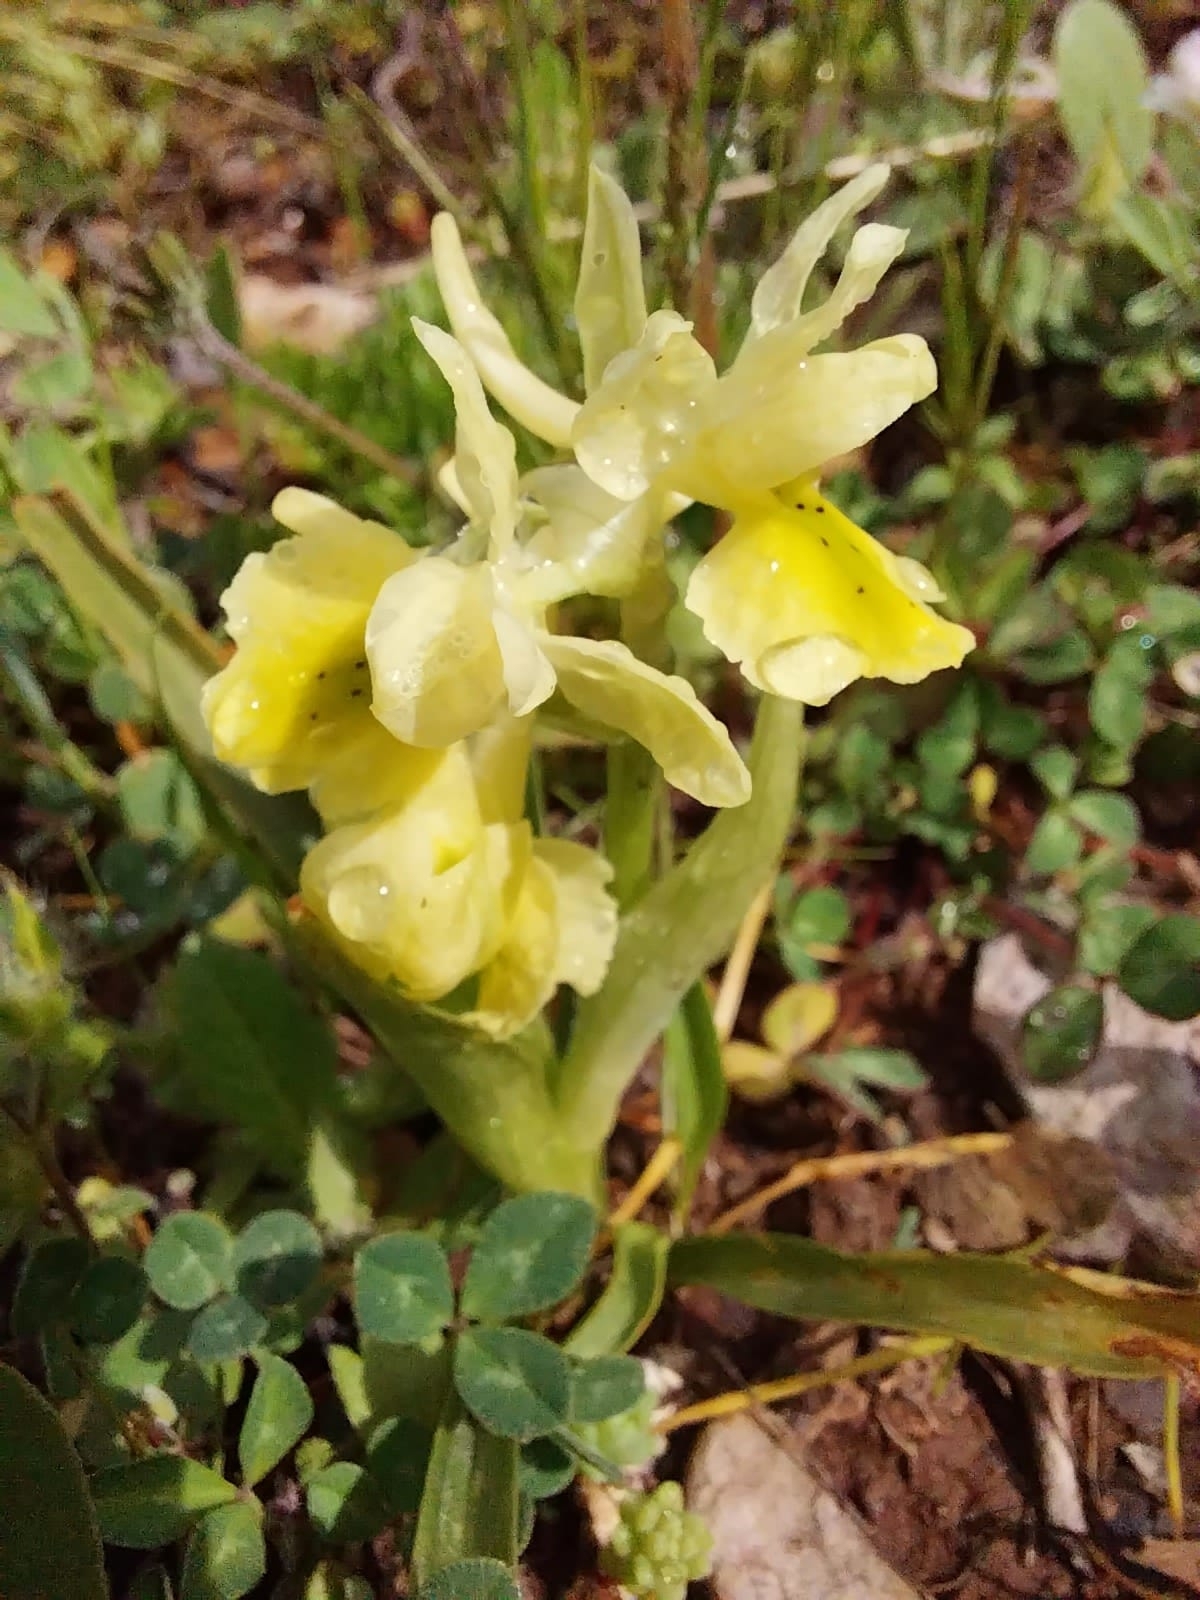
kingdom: Plantae
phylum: Tracheophyta
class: Liliopsida
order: Asparagales
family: Orchidaceae
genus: Orchis
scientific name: Orchis pauciflora
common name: Few-flowered orchid
